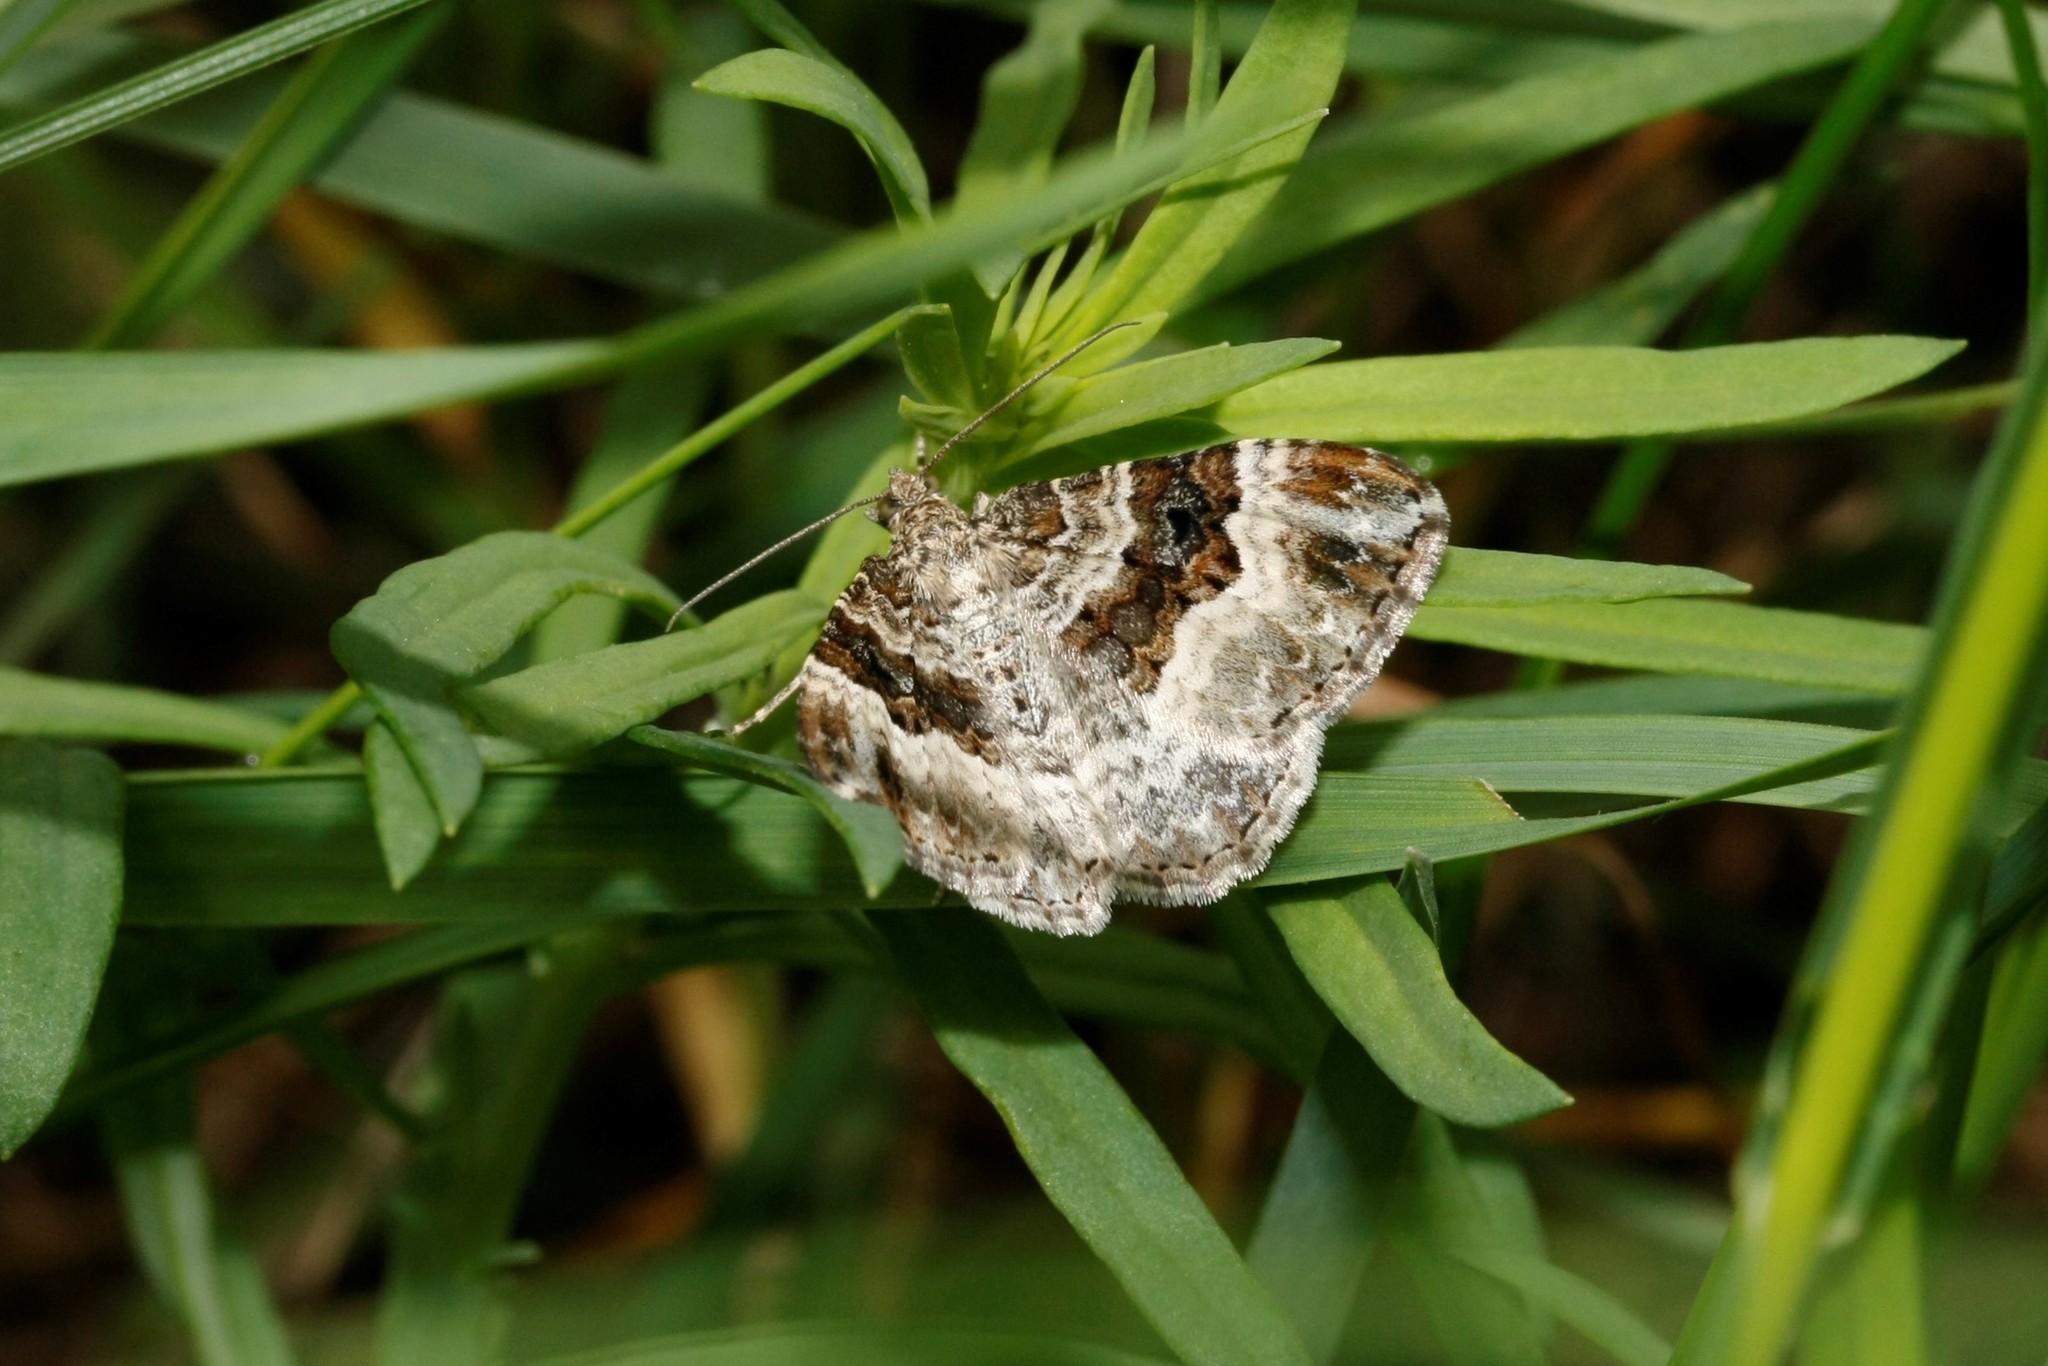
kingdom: Animalia
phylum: Arthropoda
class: Insecta
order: Lepidoptera
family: Geometridae
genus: Epirrhoe
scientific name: Epirrhoe alternata
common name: Common carpet
